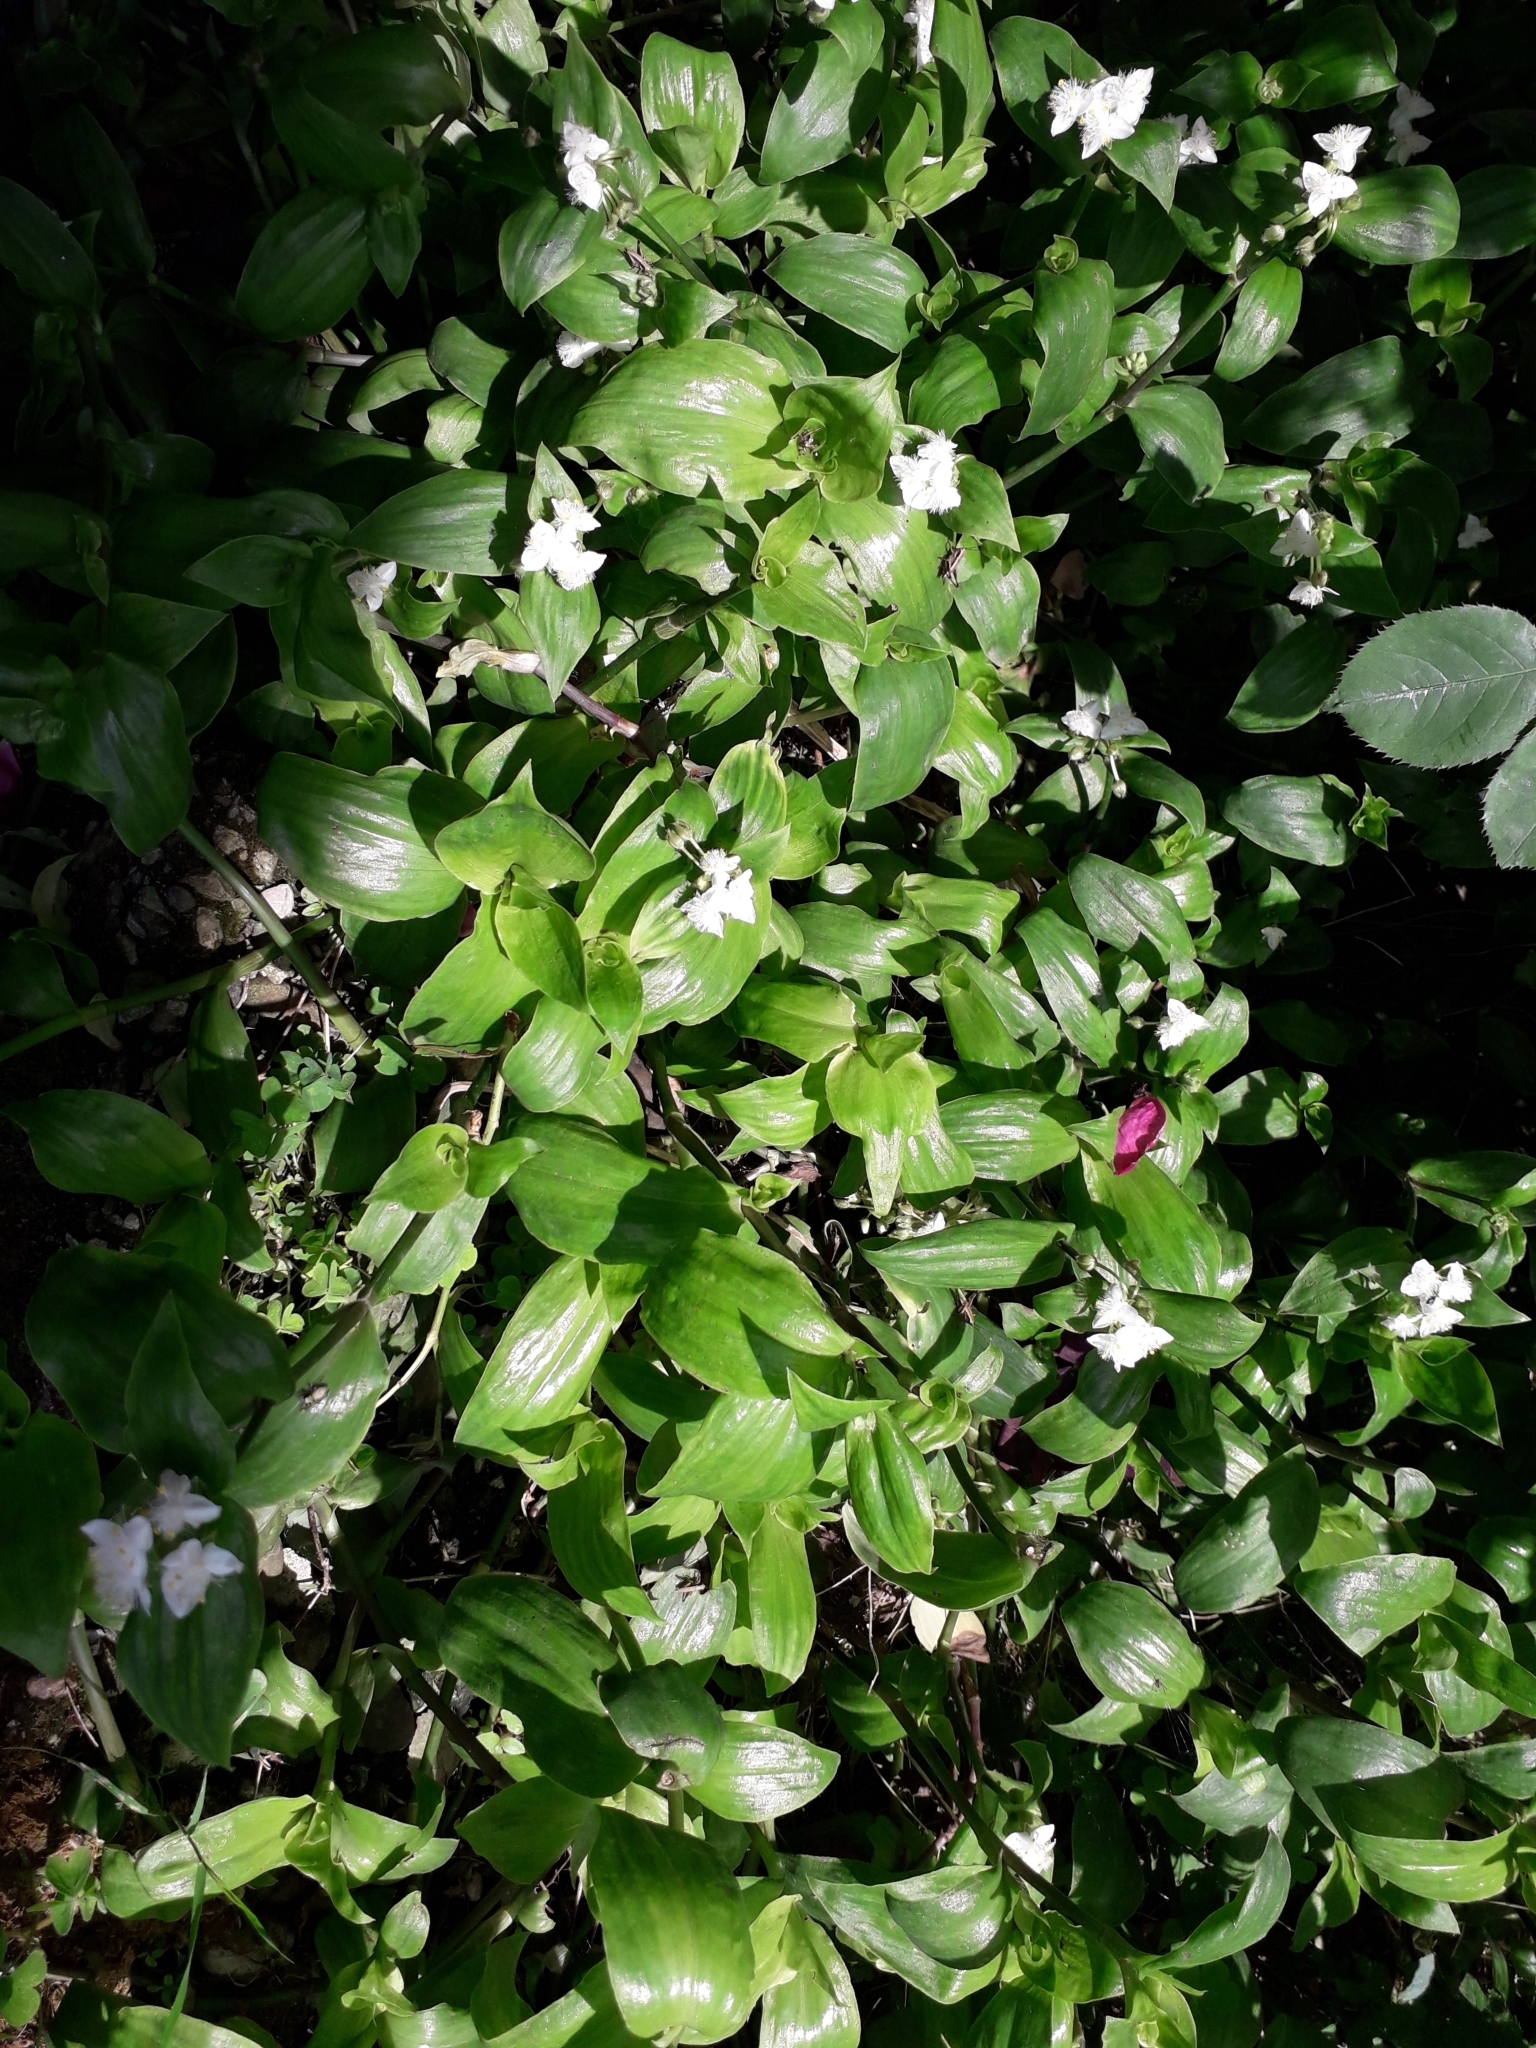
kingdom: Plantae
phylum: Tracheophyta
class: Liliopsida
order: Commelinales
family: Commelinaceae
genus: Tradescantia
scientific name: Tradescantia fluminensis
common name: Wandering-jew
